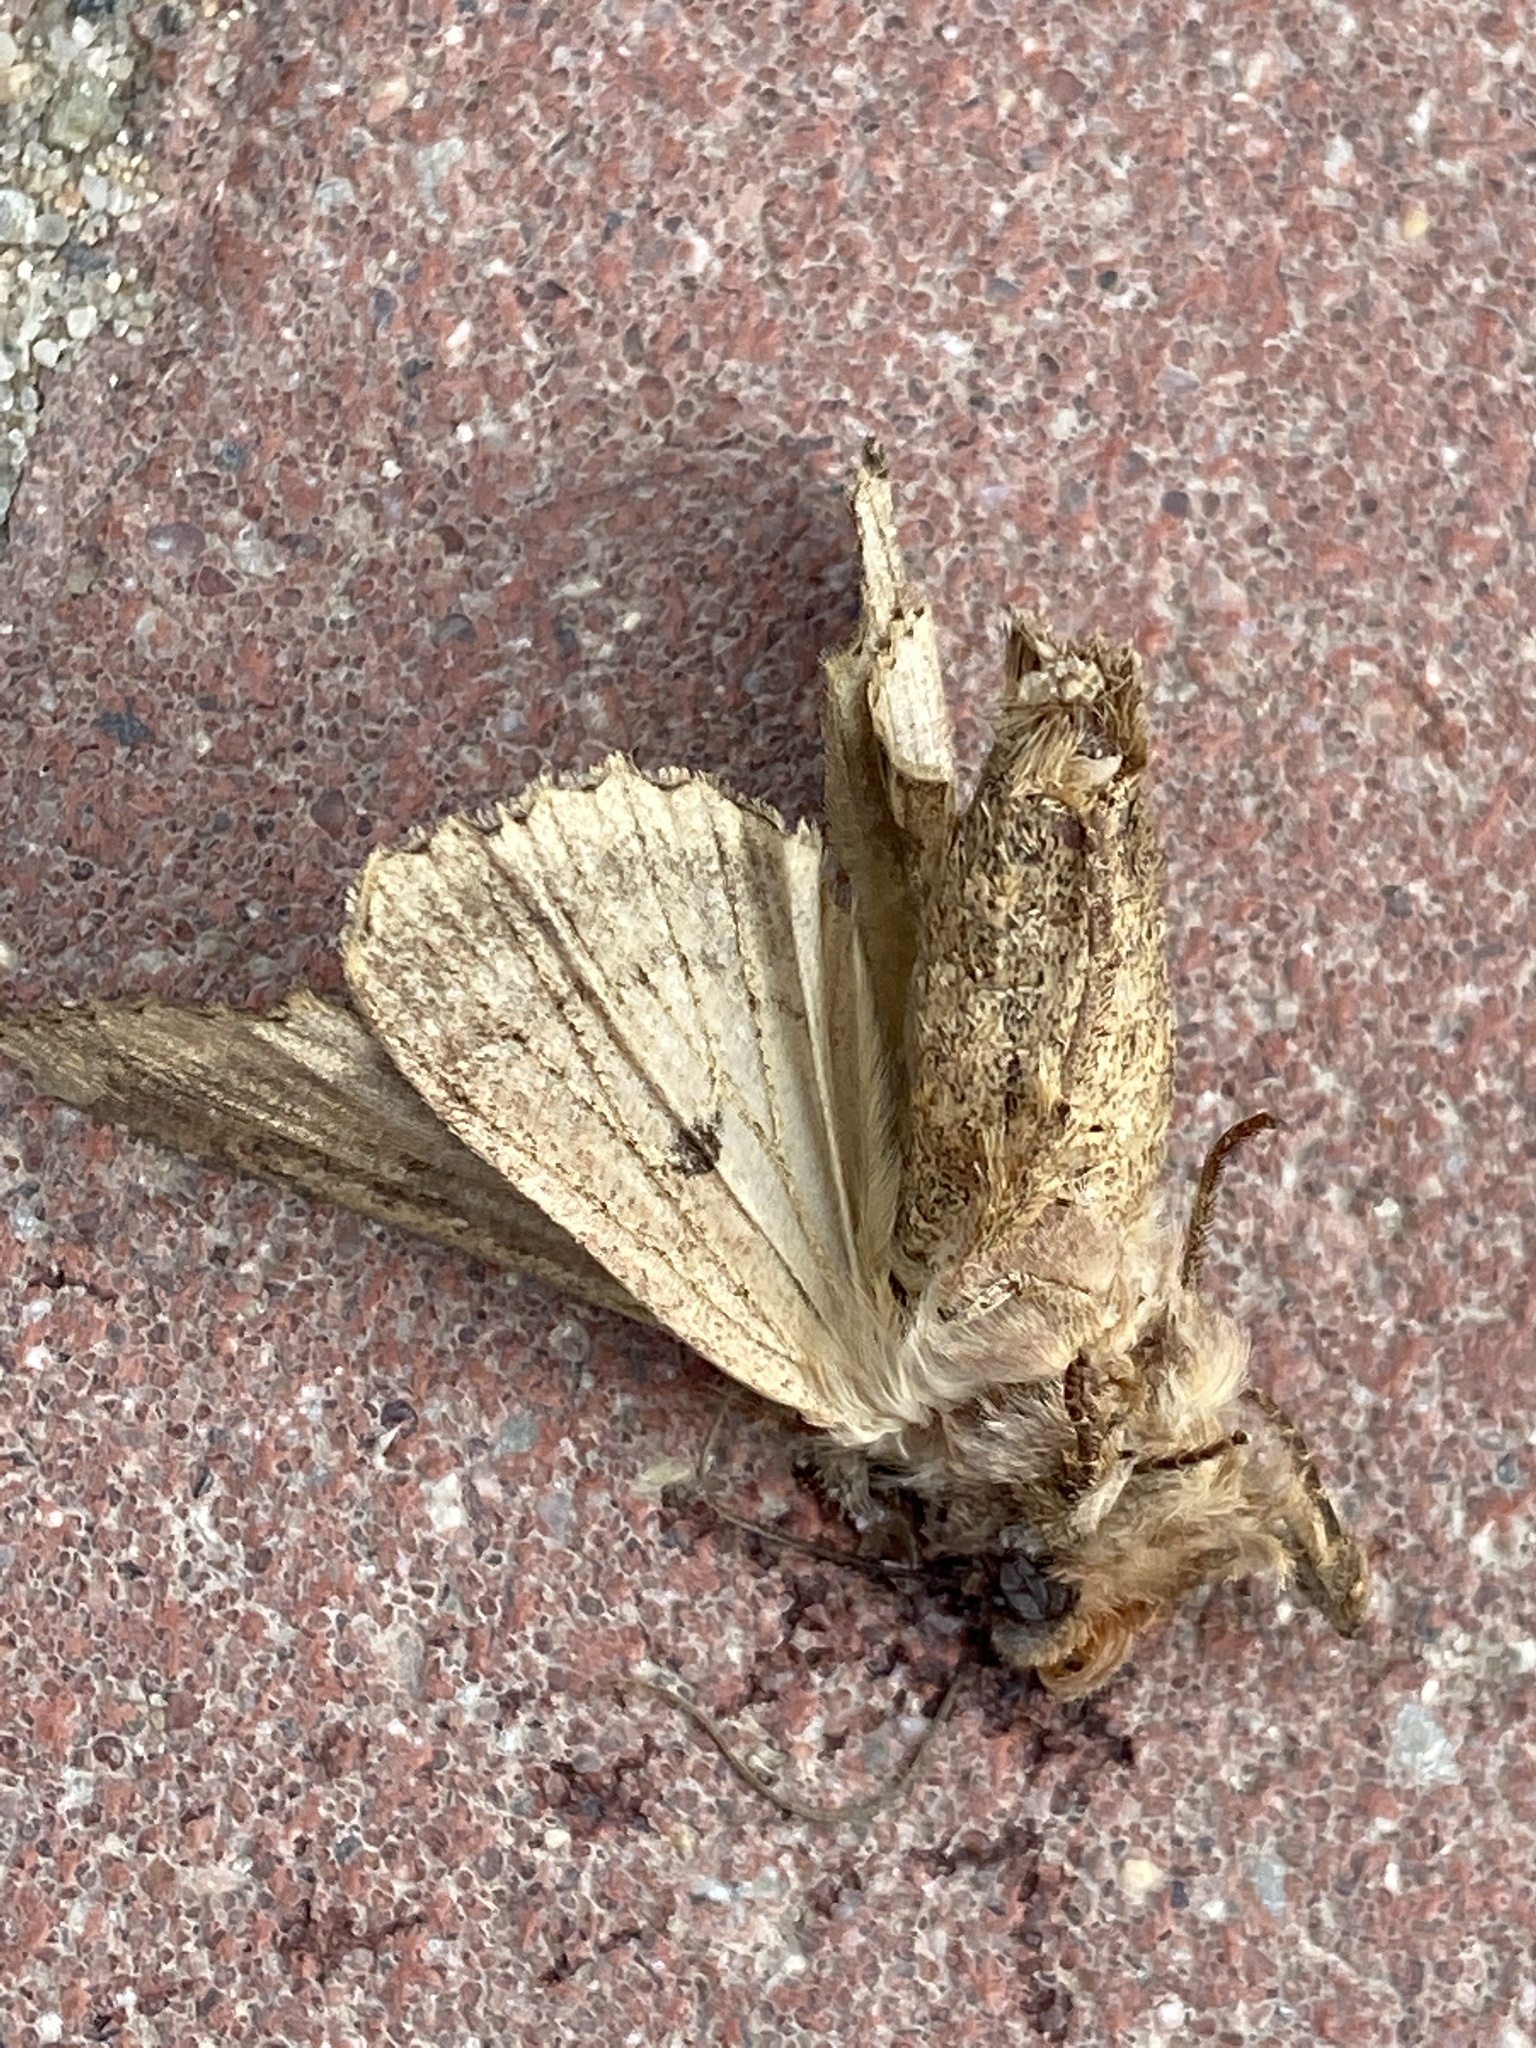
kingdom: Animalia
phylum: Arthropoda
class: Insecta
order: Lepidoptera
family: Noctuidae
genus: Apamea
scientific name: Apamea monoglypha
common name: Dark arches
